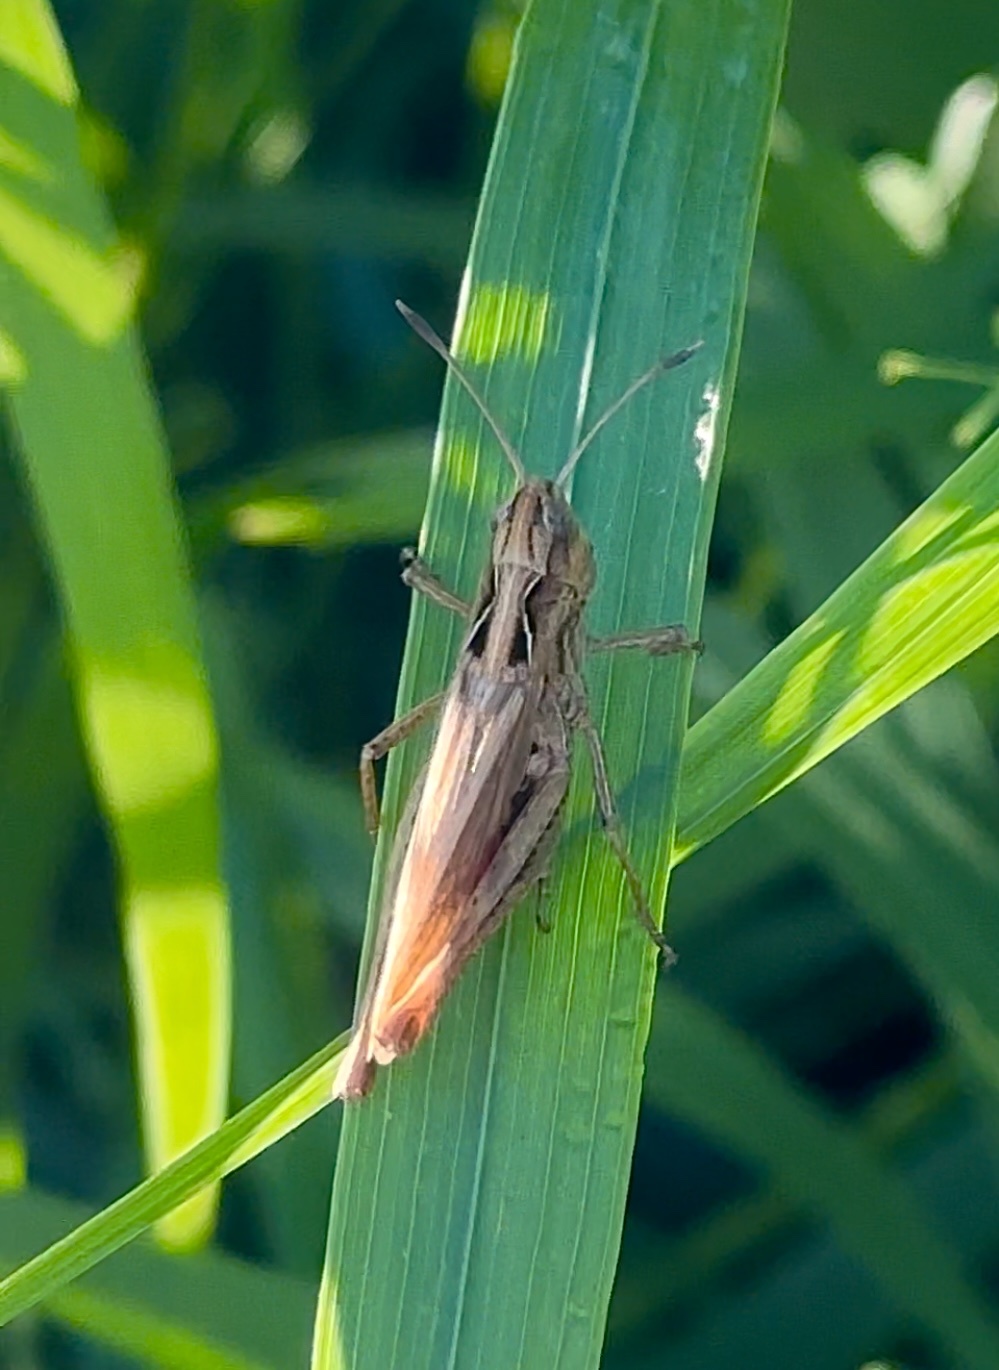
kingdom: Animalia
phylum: Arthropoda
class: Insecta
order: Orthoptera
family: Acrididae
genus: Gomphocerippus
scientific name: Gomphocerippus rufus
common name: Rufous grasshopper
